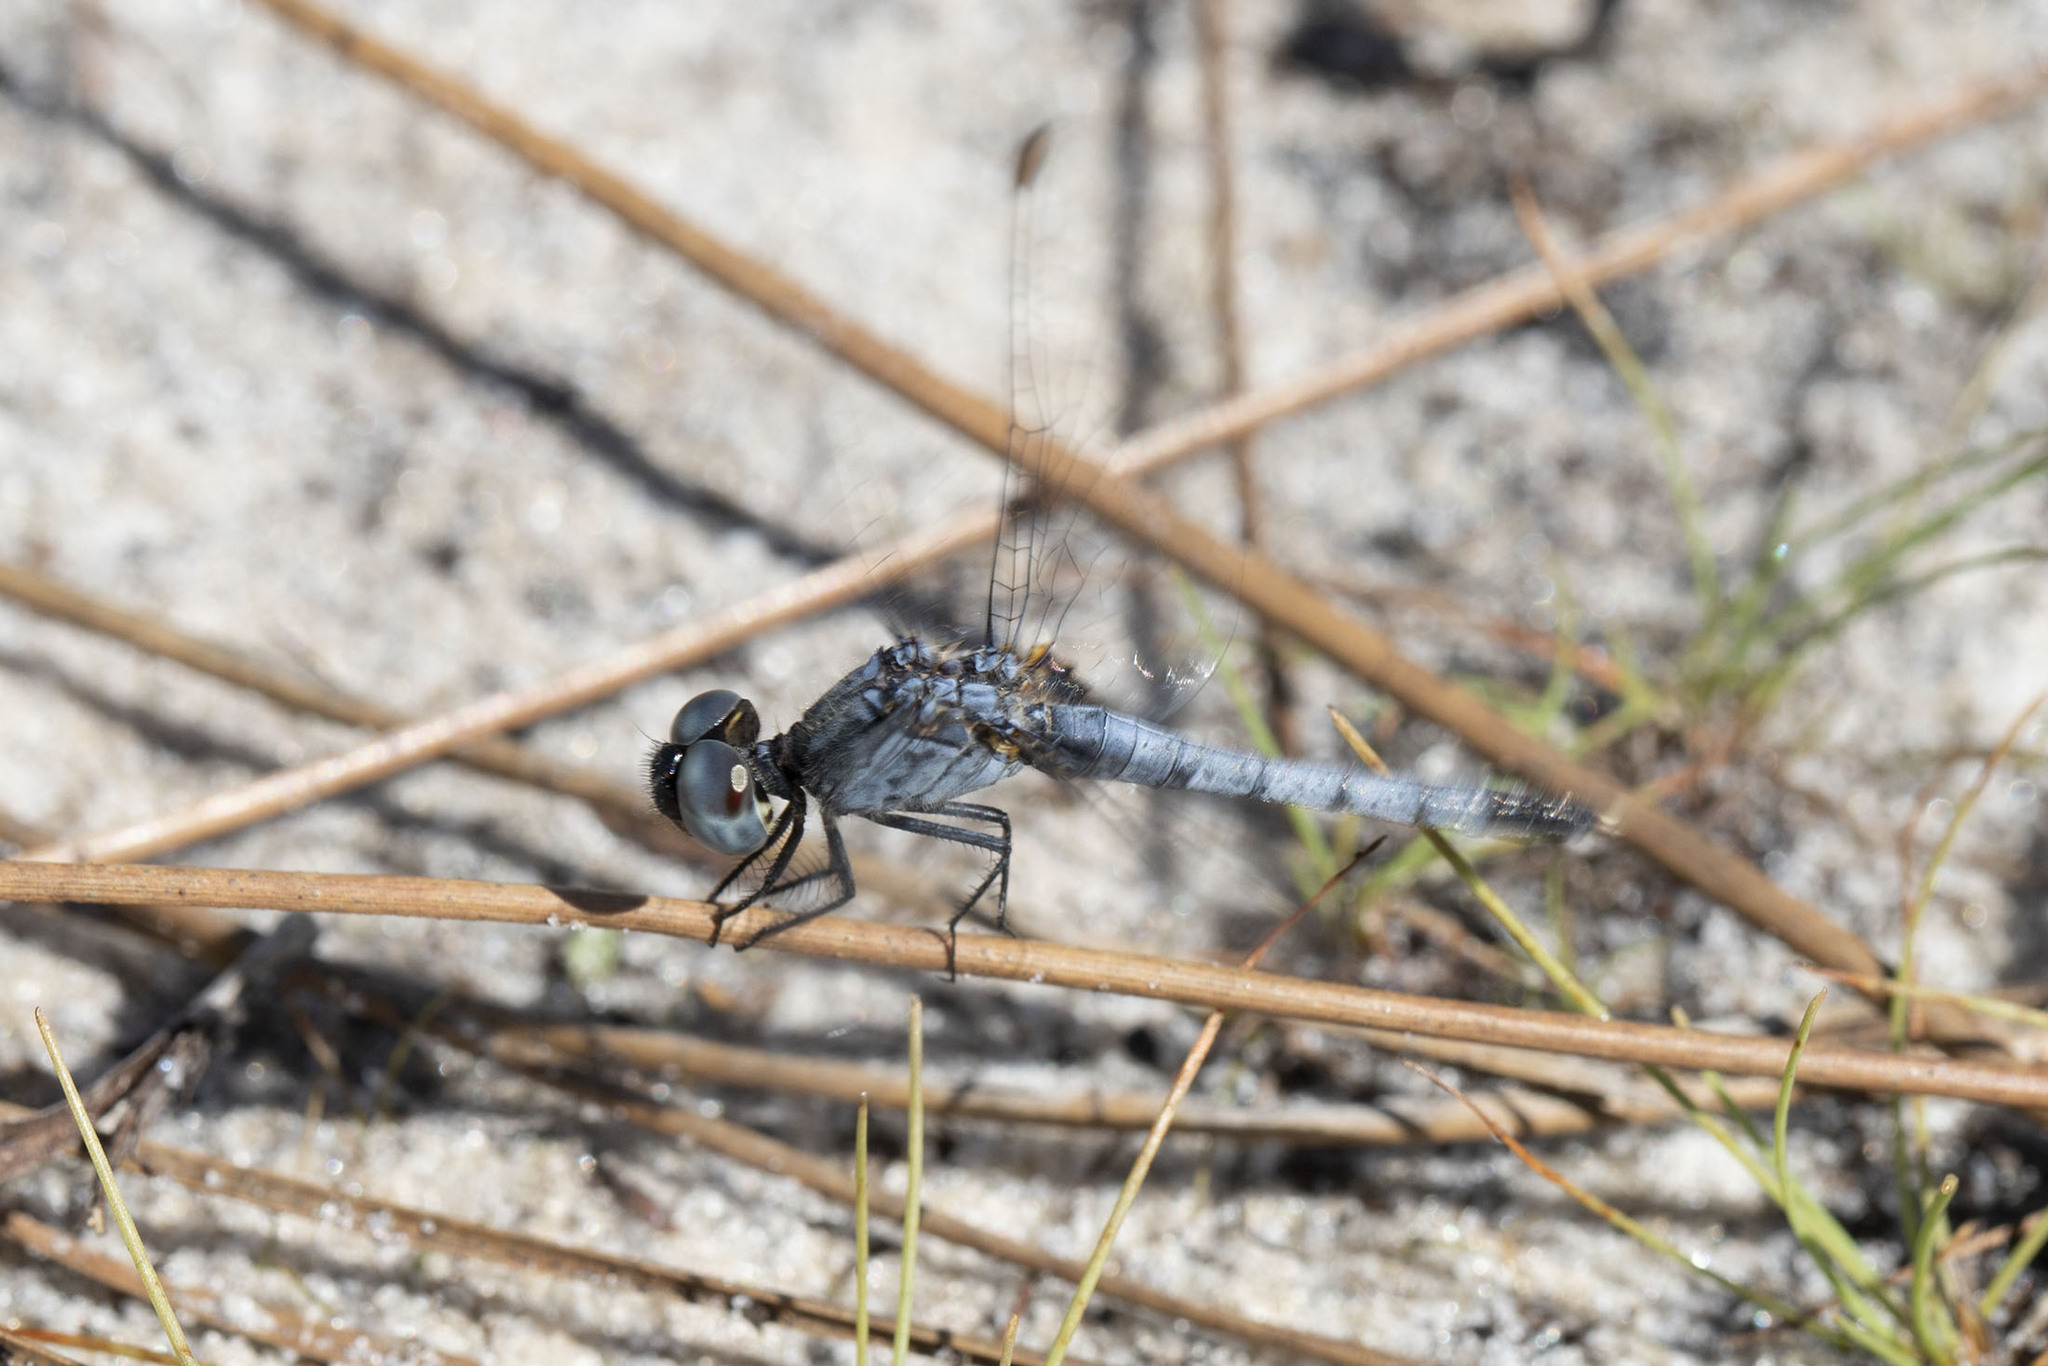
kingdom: Animalia
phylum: Arthropoda
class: Insecta
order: Odonata
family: Libellulidae
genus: Erythrodiplax
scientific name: Erythrodiplax minuscula
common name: Little blue dragonlet
